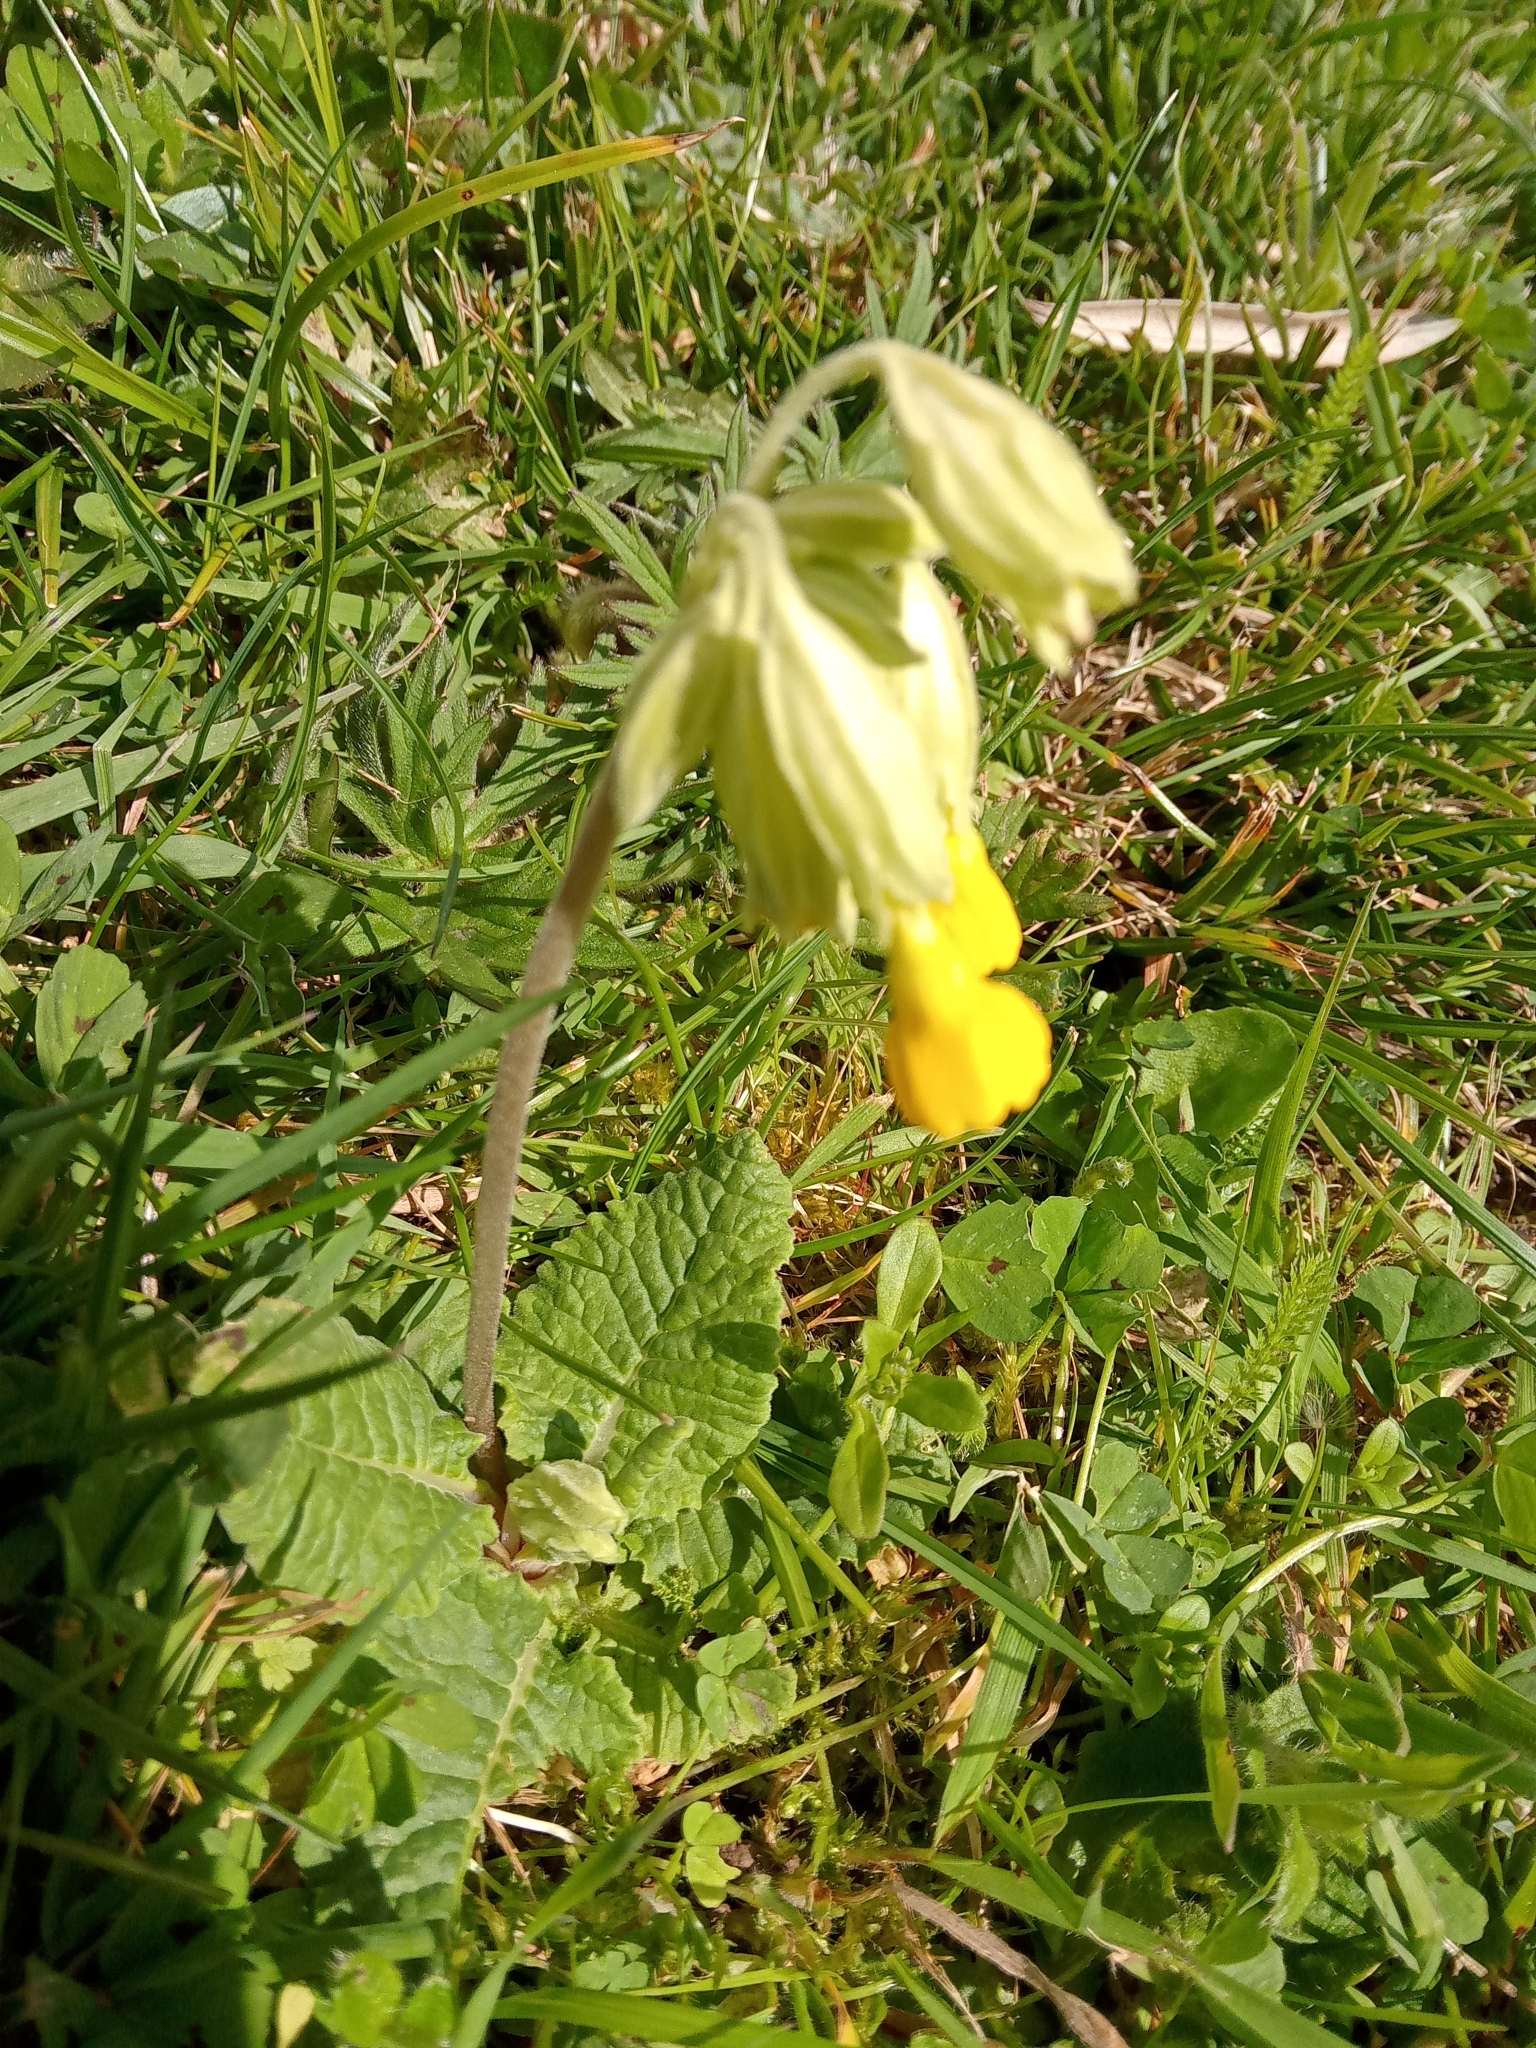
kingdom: Plantae
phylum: Tracheophyta
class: Magnoliopsida
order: Ericales
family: Primulaceae
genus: Primula
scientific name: Primula veris
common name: Cowslip
